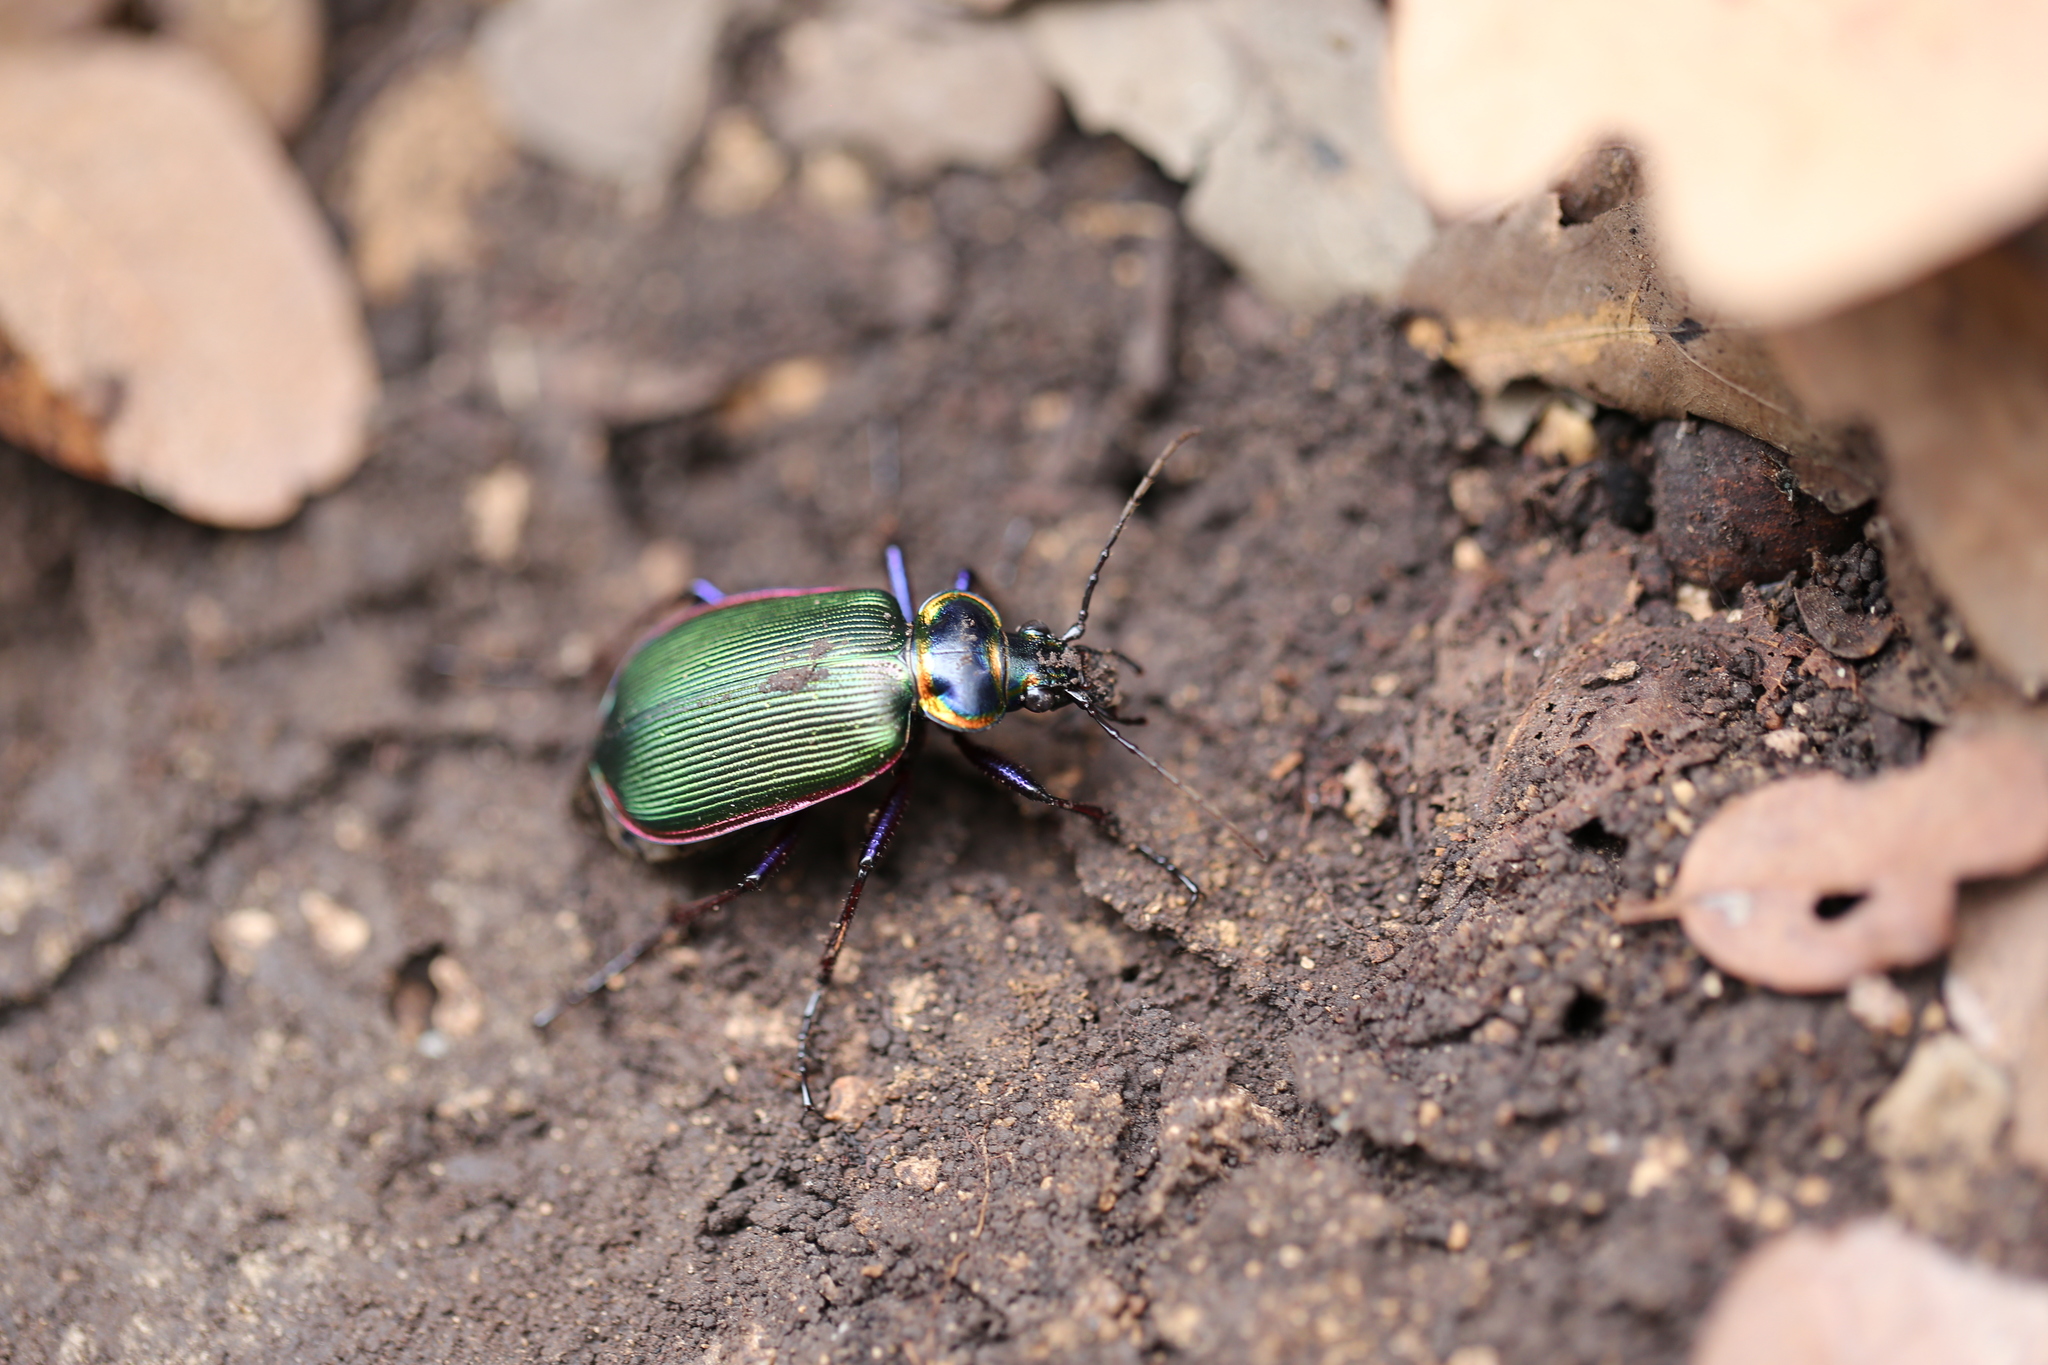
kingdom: Animalia
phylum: Arthropoda
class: Insecta
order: Coleoptera
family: Carabidae
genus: Calosoma
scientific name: Calosoma scrutator
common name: Fiery searcher beetle
